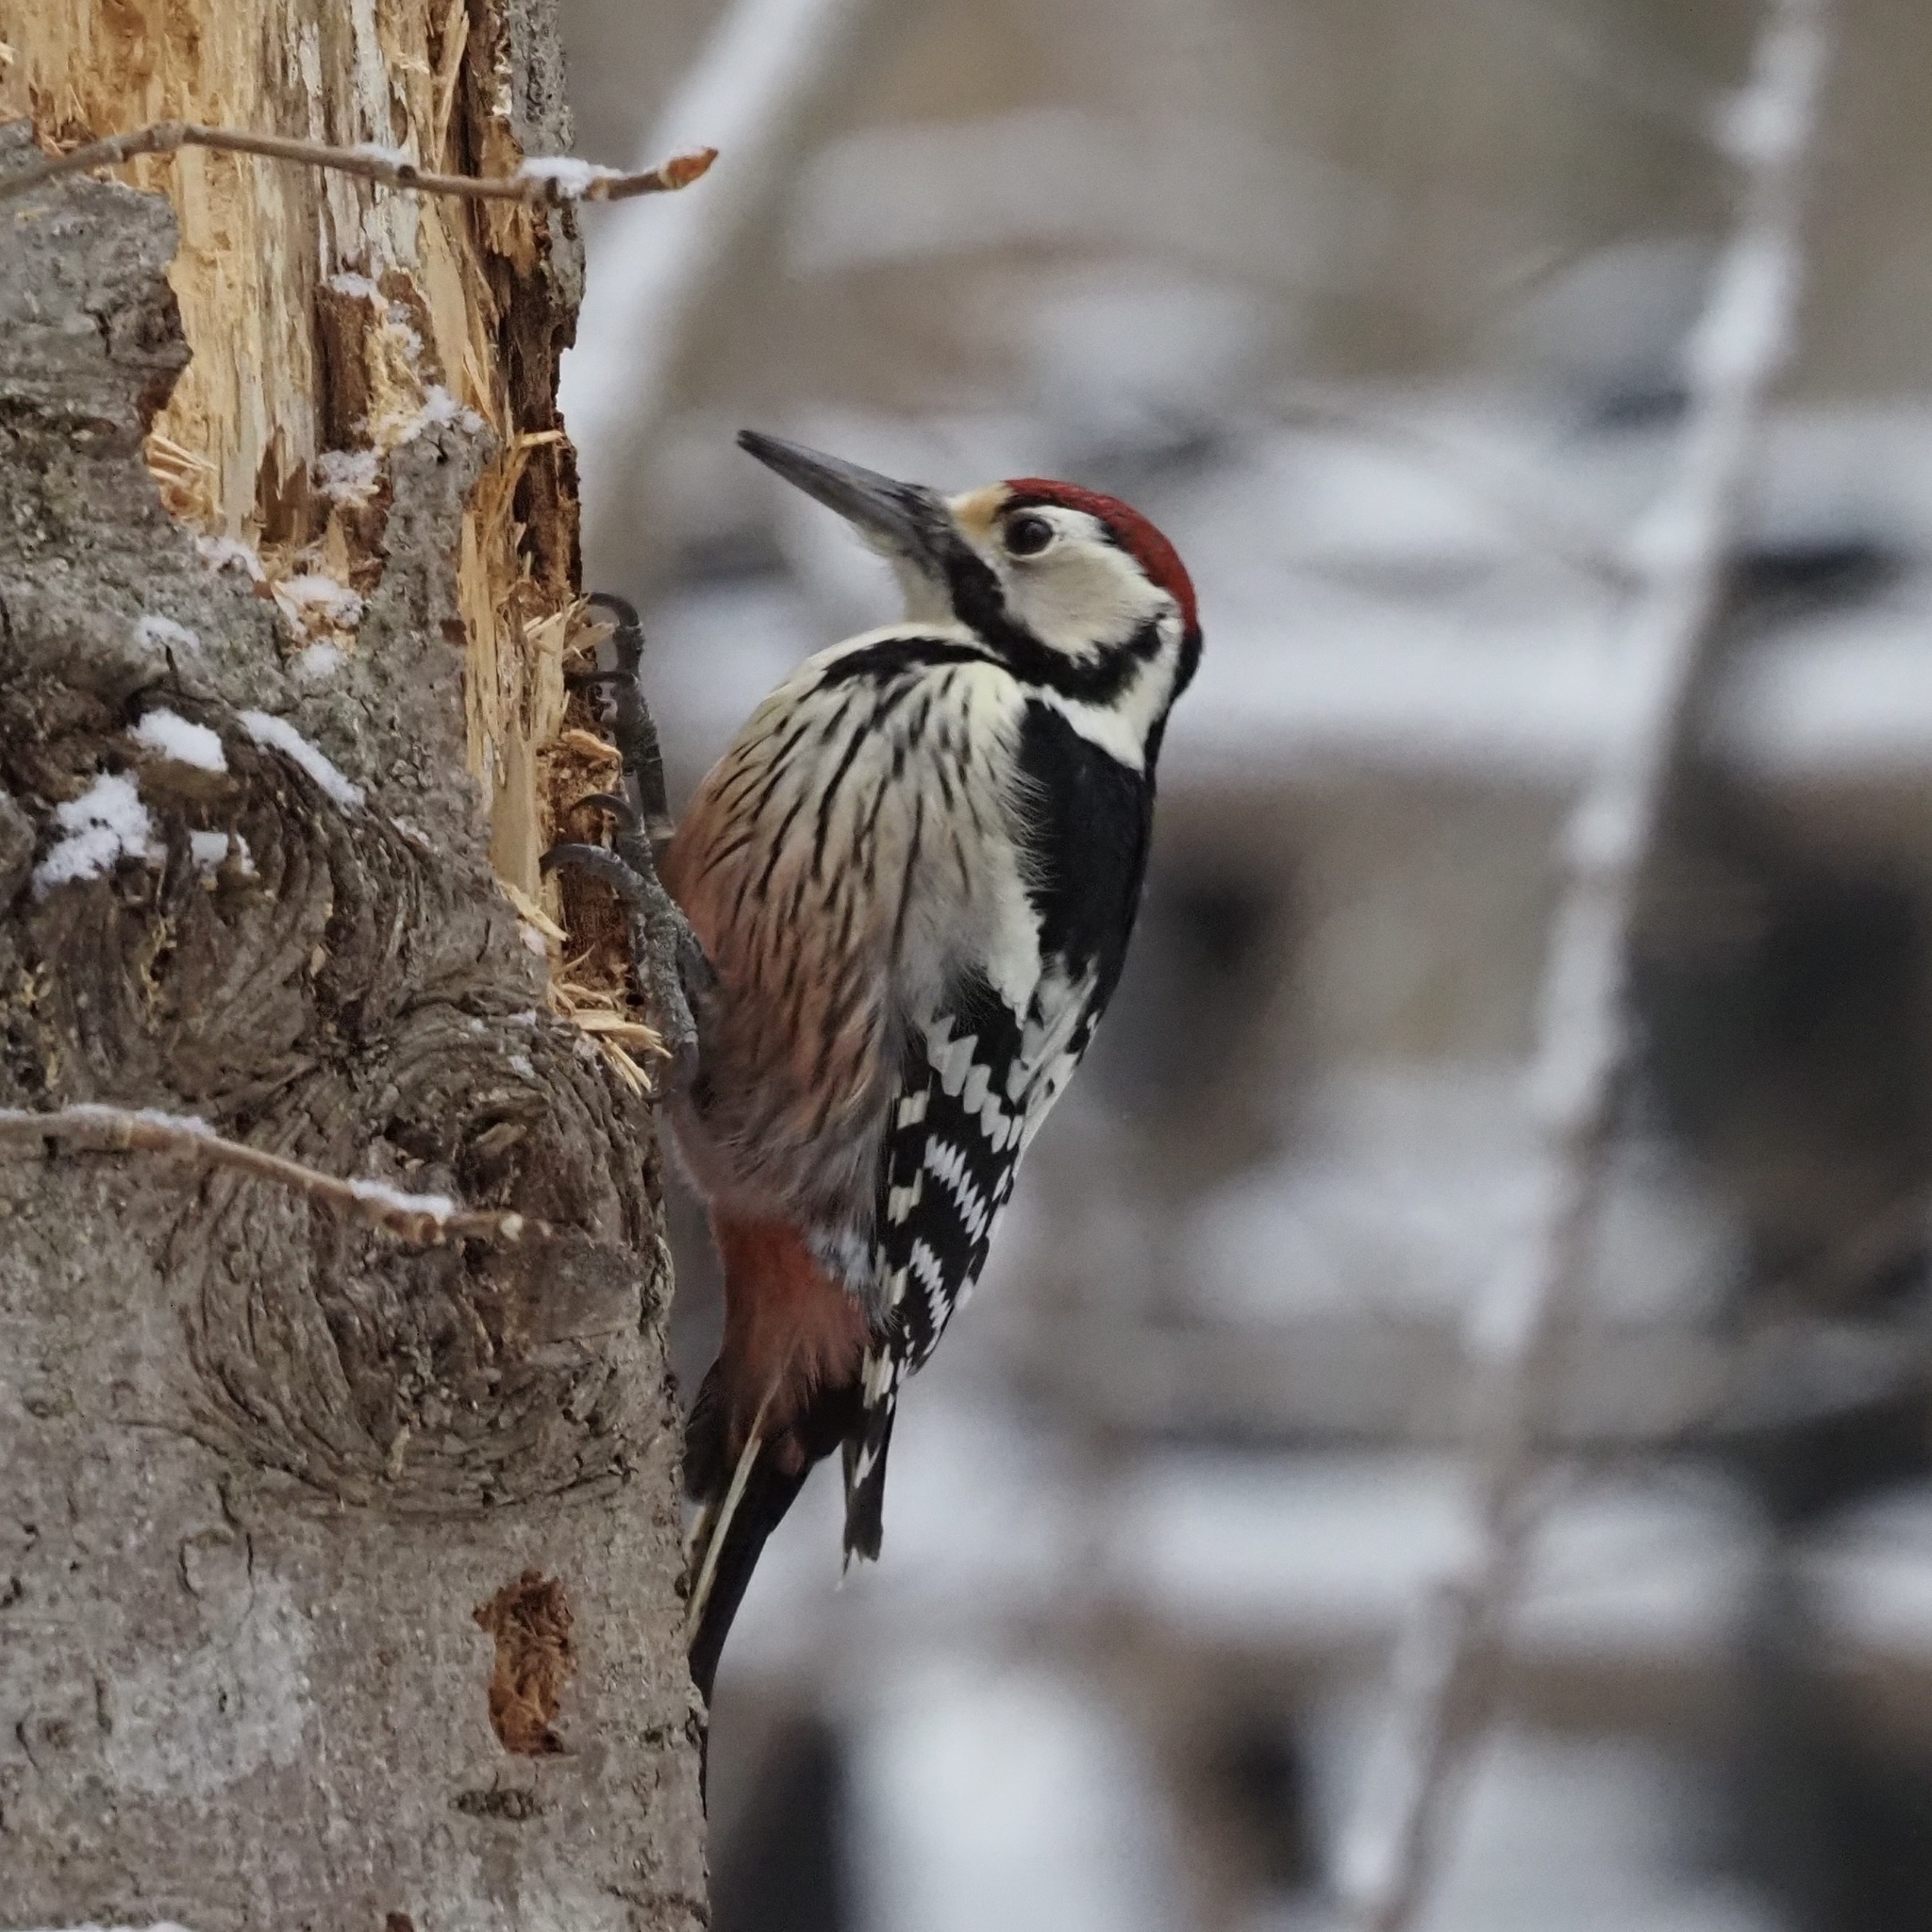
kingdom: Animalia
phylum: Chordata
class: Aves
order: Piciformes
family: Picidae
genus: Dendrocopos
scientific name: Dendrocopos leucotos
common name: White-backed woodpecker
